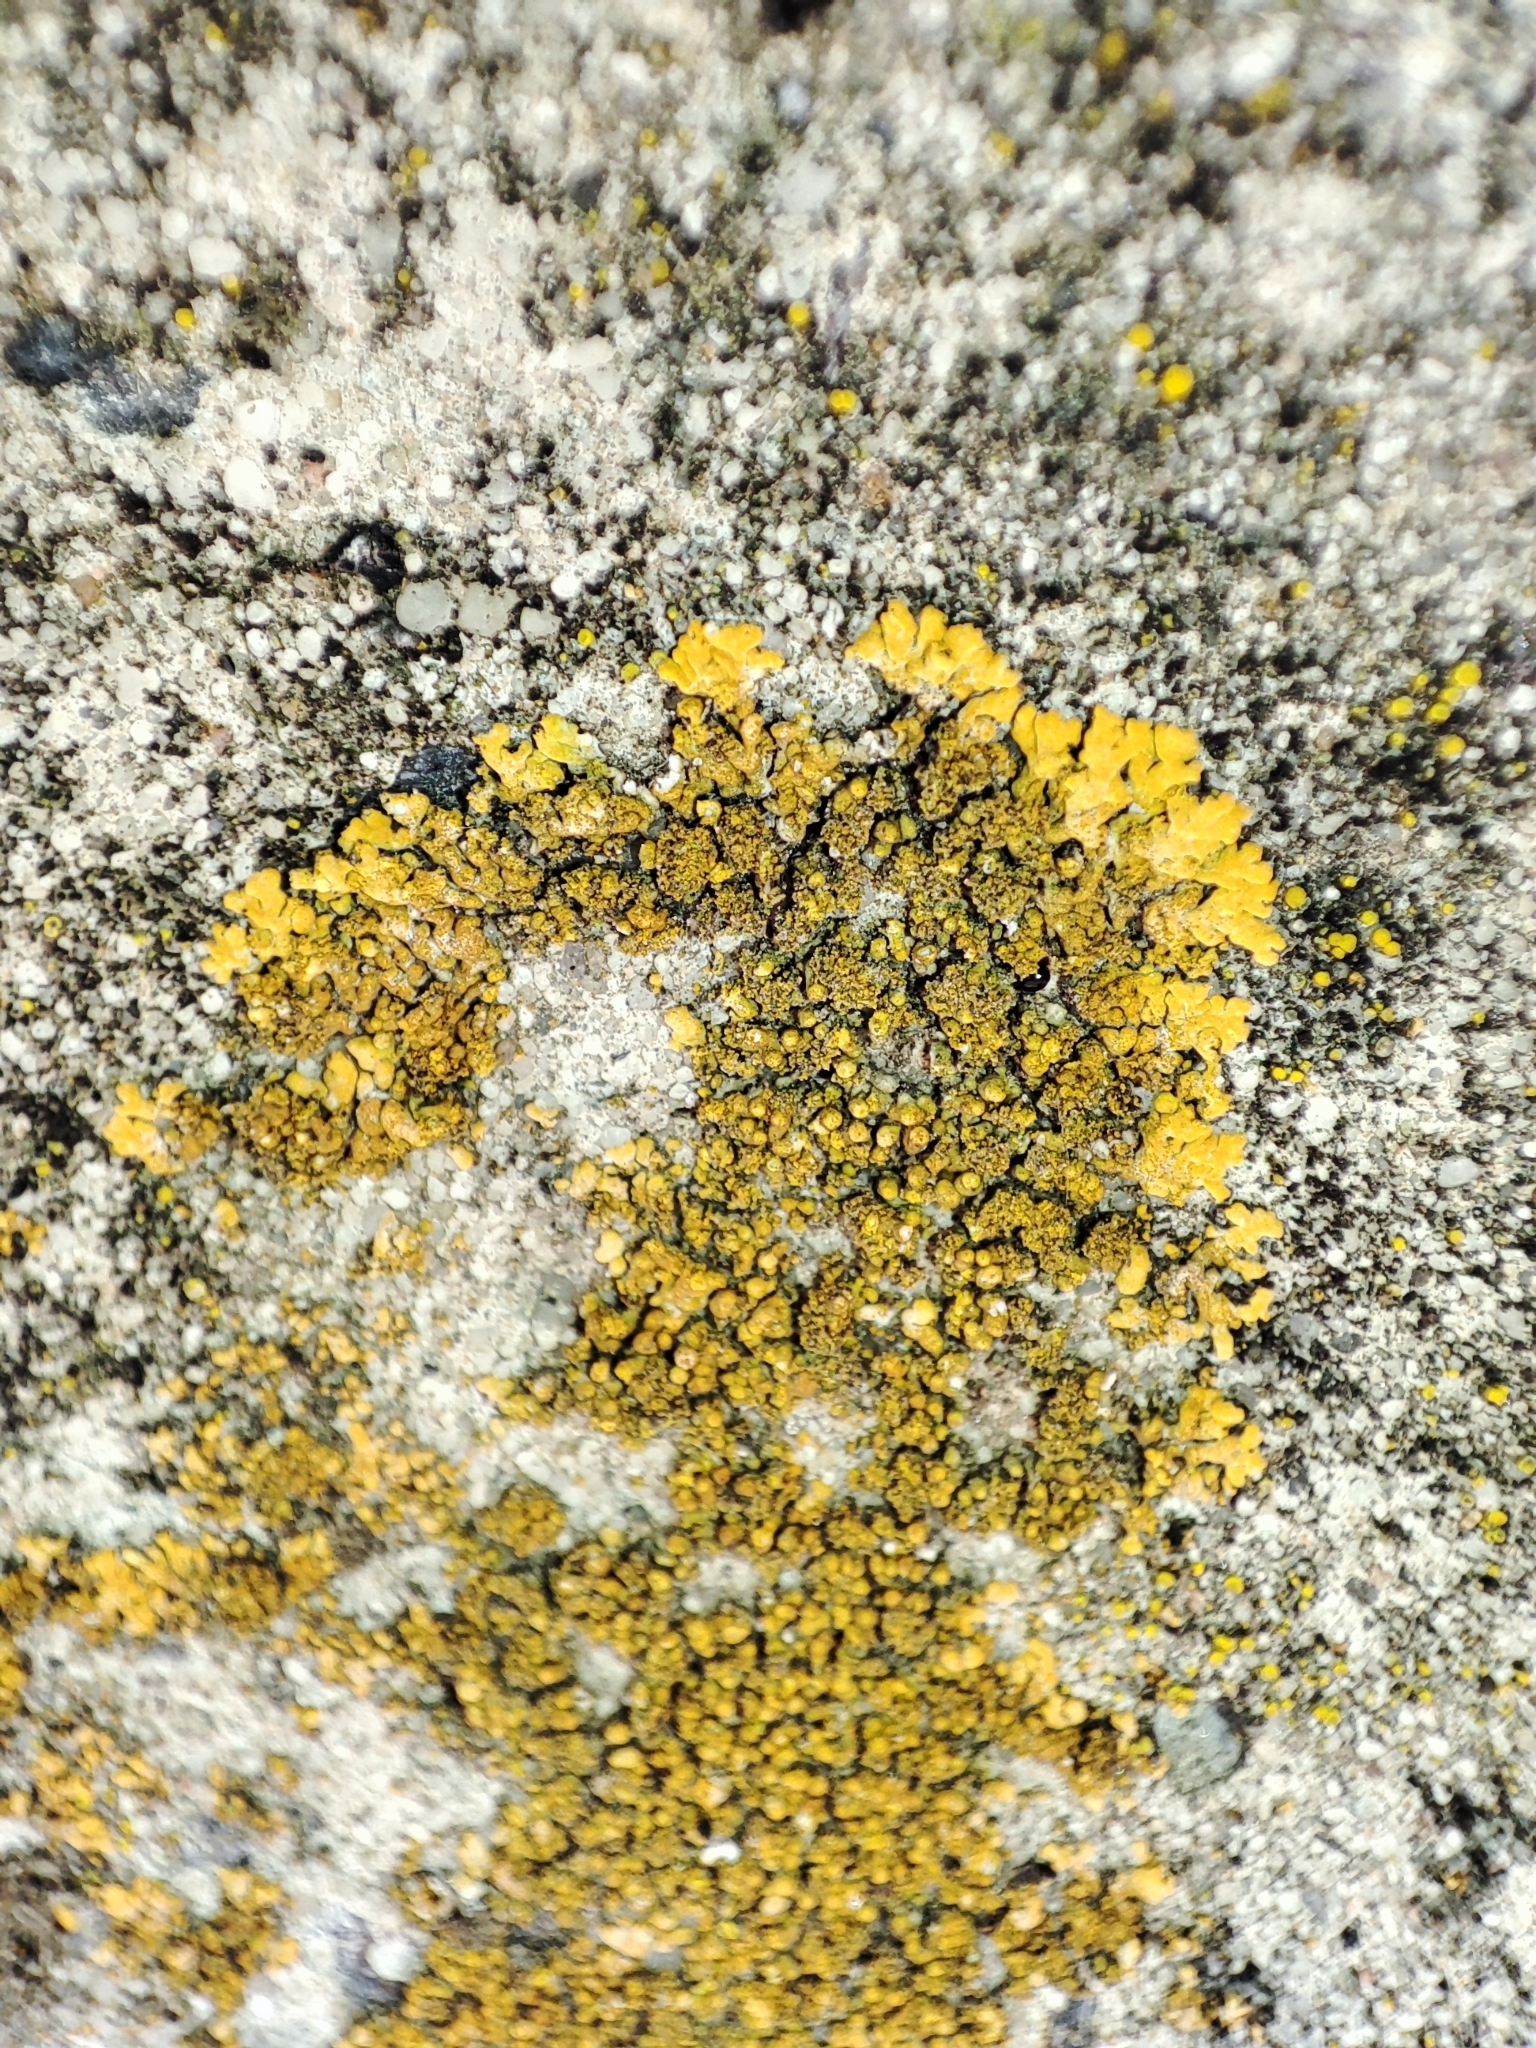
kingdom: Fungi
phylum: Ascomycota
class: Lecanoromycetes
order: Teloschistales
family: Teloschistaceae
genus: Calogaya
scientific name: Calogaya decipiens
